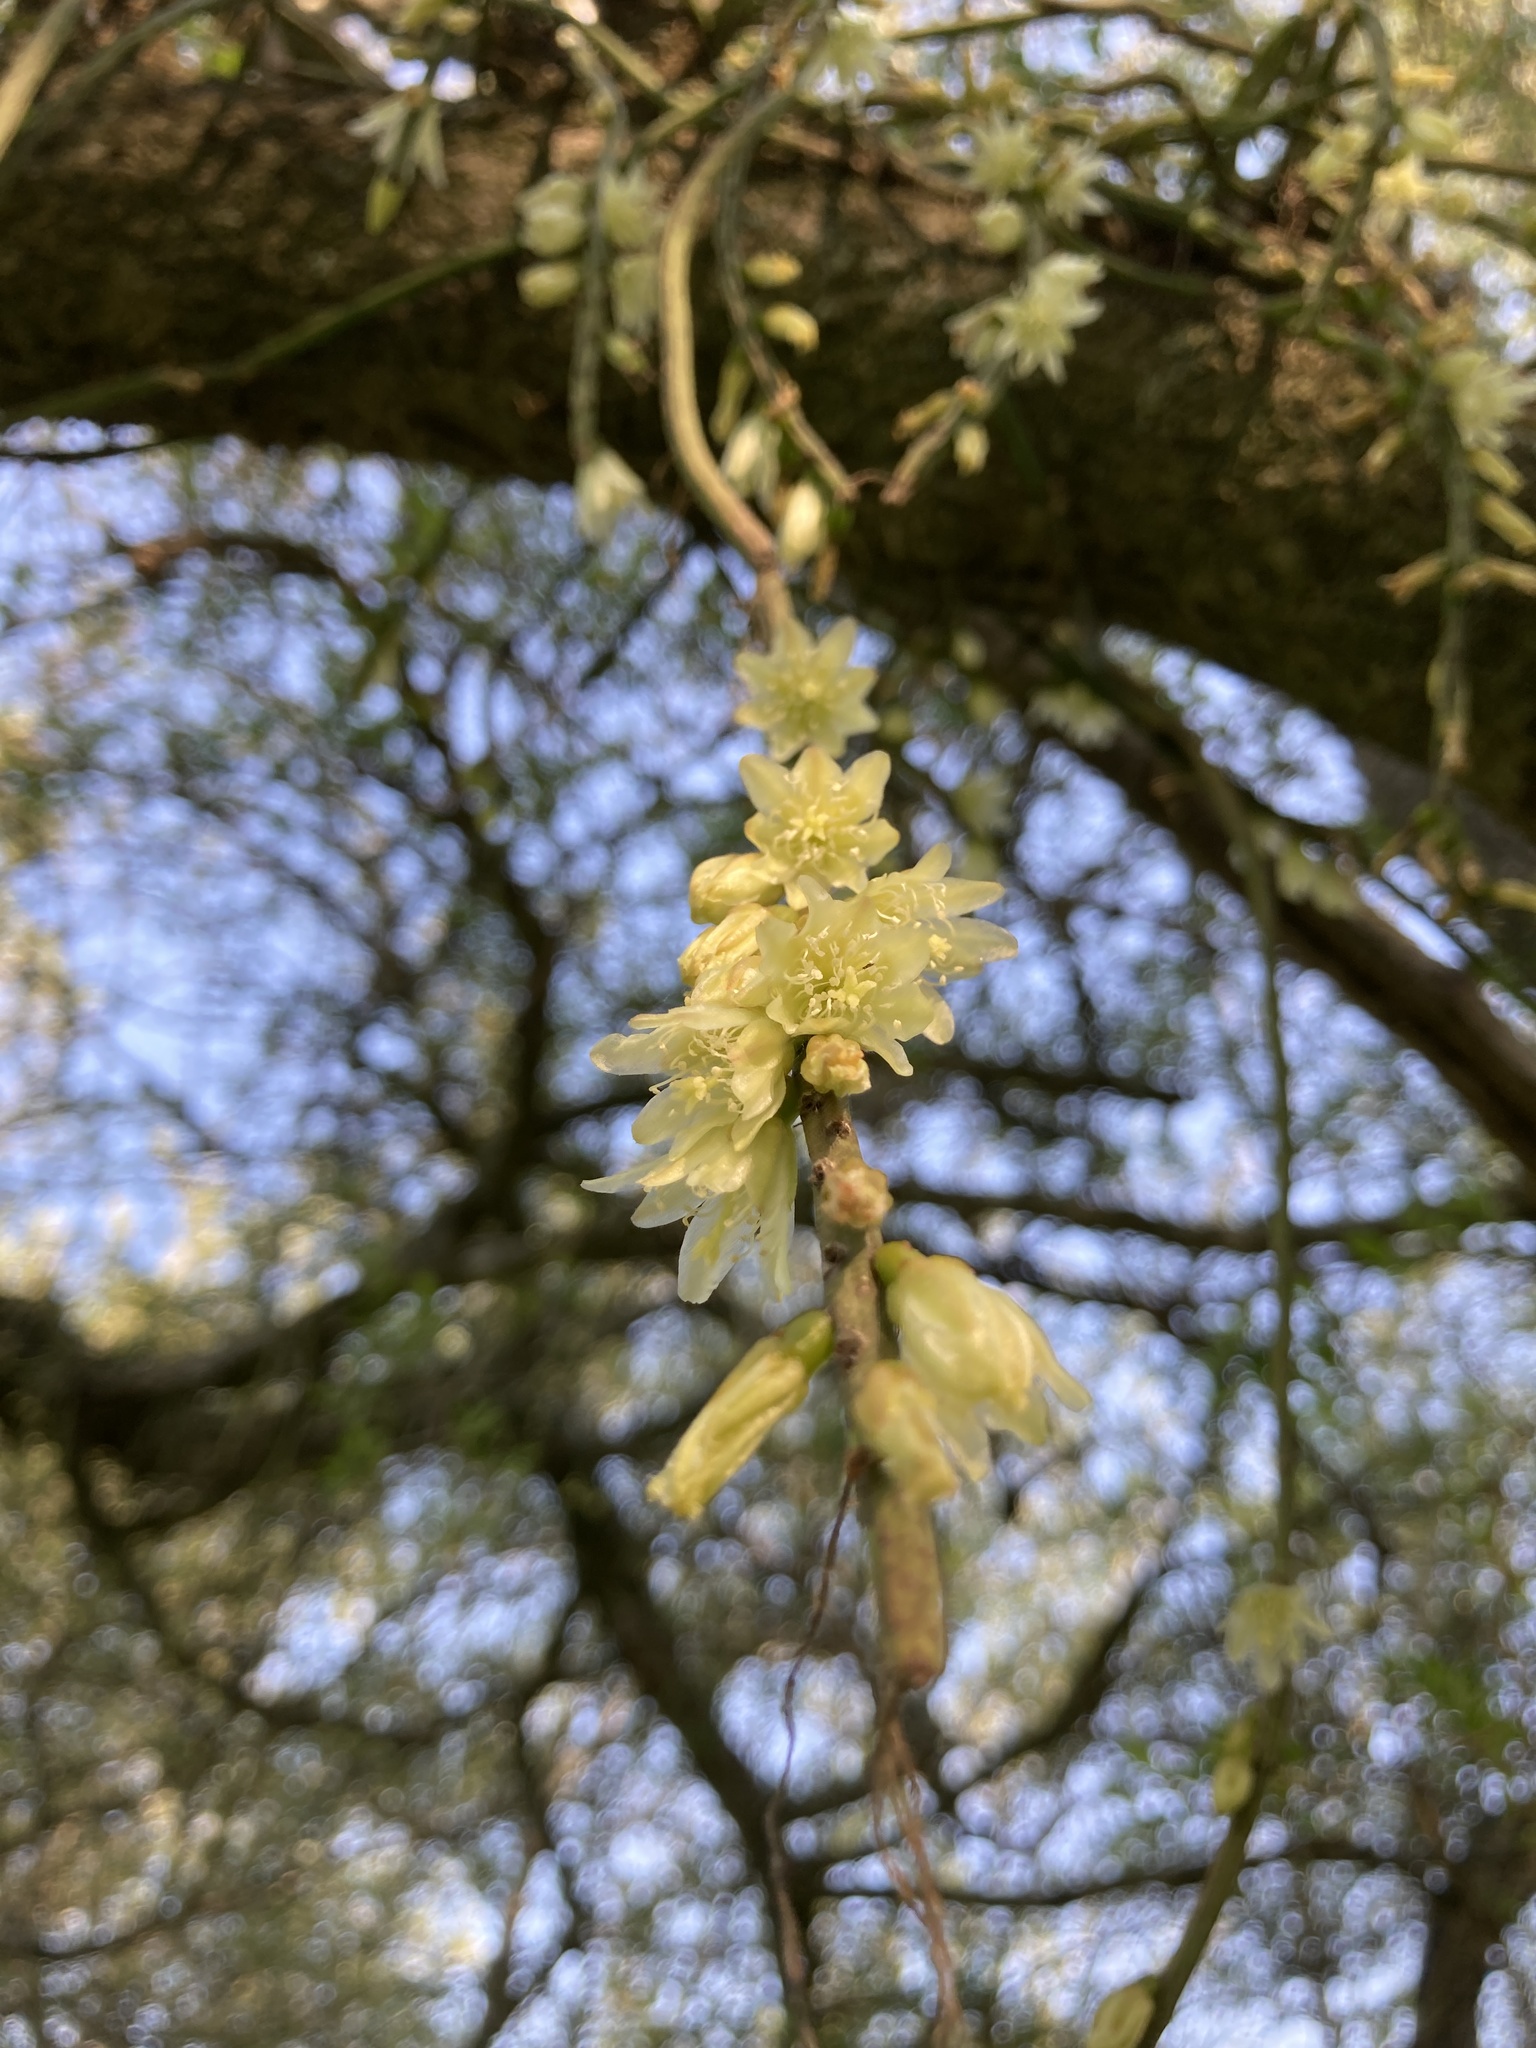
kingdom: Plantae
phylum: Tracheophyta
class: Magnoliopsida
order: Caryophyllales
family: Cactaceae
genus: Lepismium
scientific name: Lepismium lumbricoides
